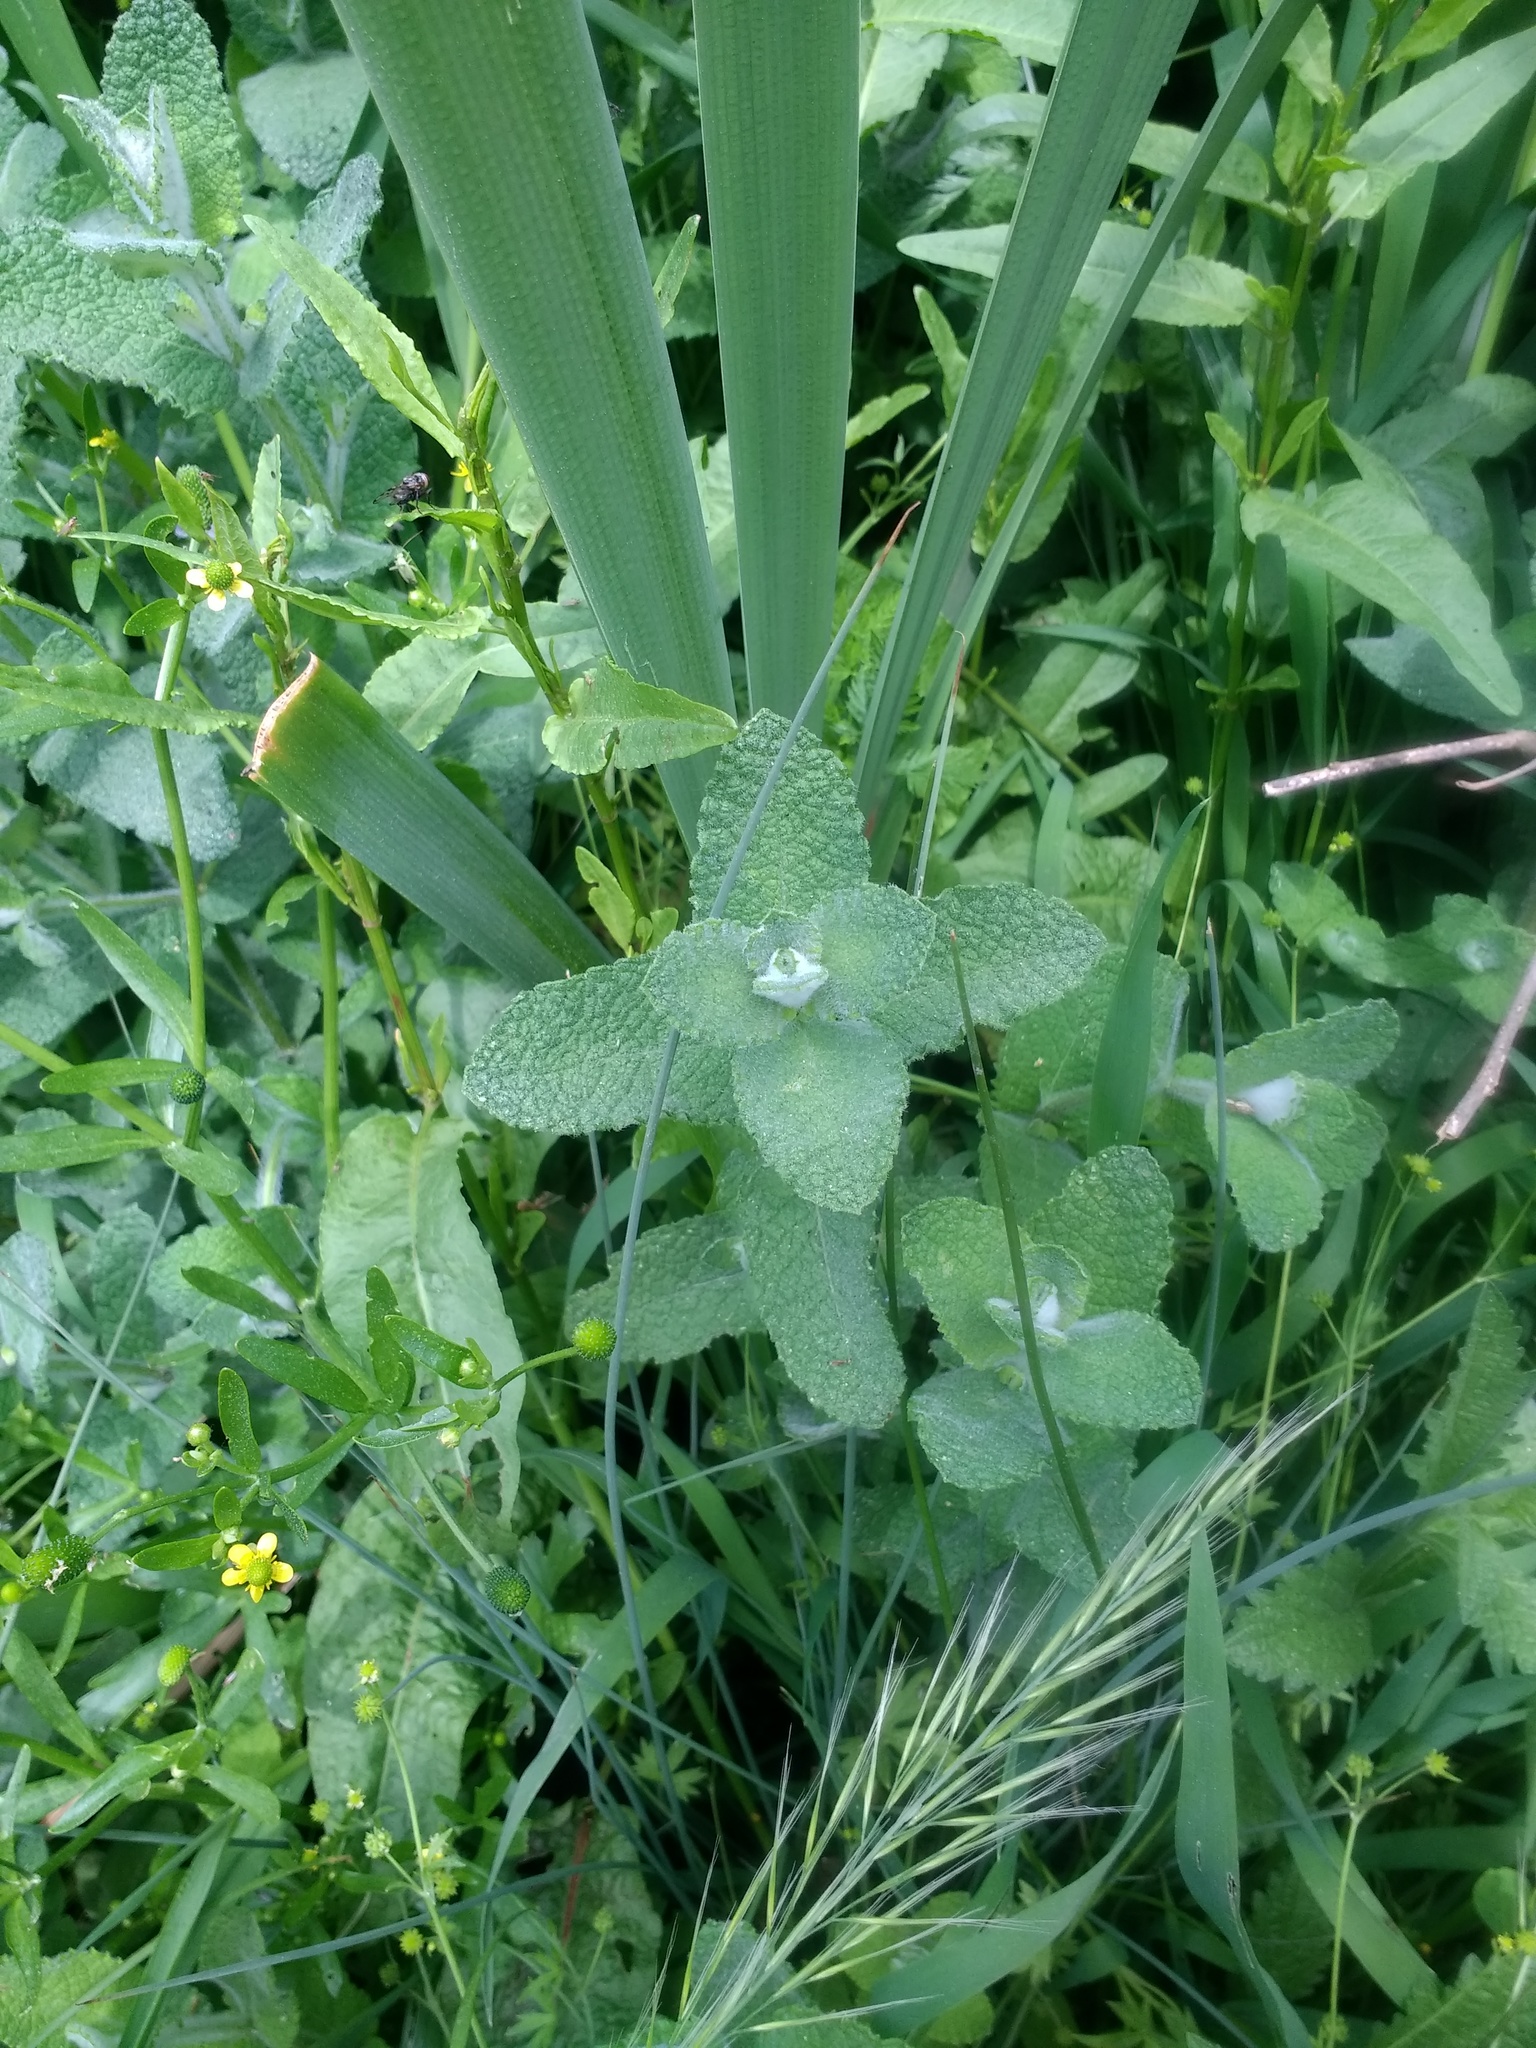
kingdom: Plantae
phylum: Tracheophyta
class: Magnoliopsida
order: Lamiales
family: Lamiaceae
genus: Mentha
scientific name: Mentha suaveolens
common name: Apple mint
